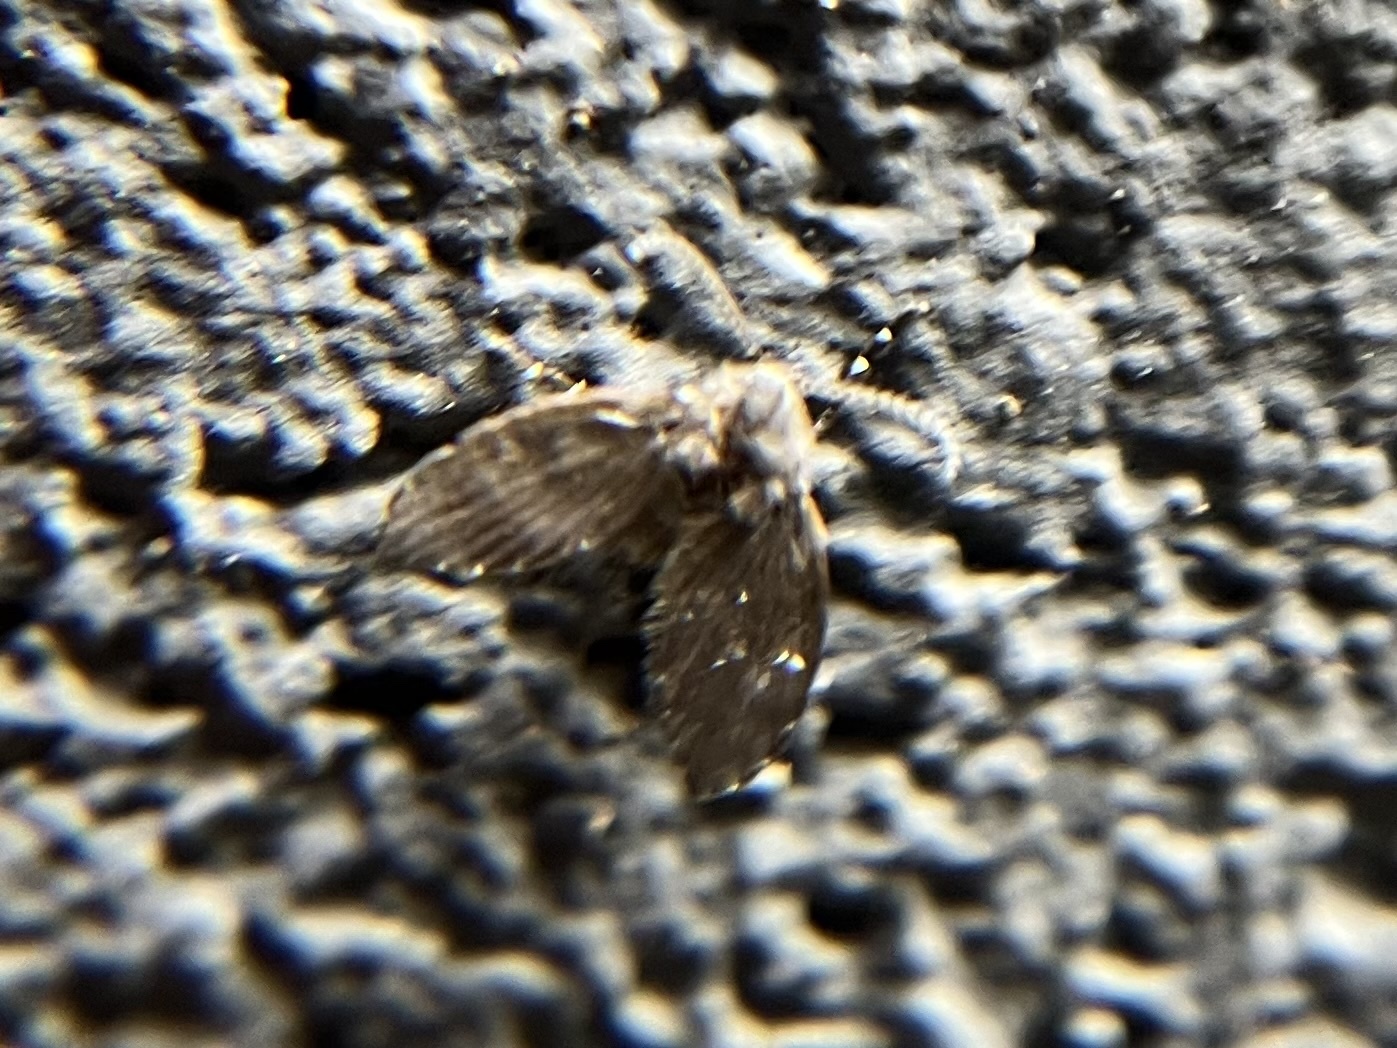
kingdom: Animalia
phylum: Arthropoda
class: Insecta
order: Diptera
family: Psychodidae
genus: Clogmia
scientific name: Clogmia albipunctatus
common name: White-spotted moth fly
